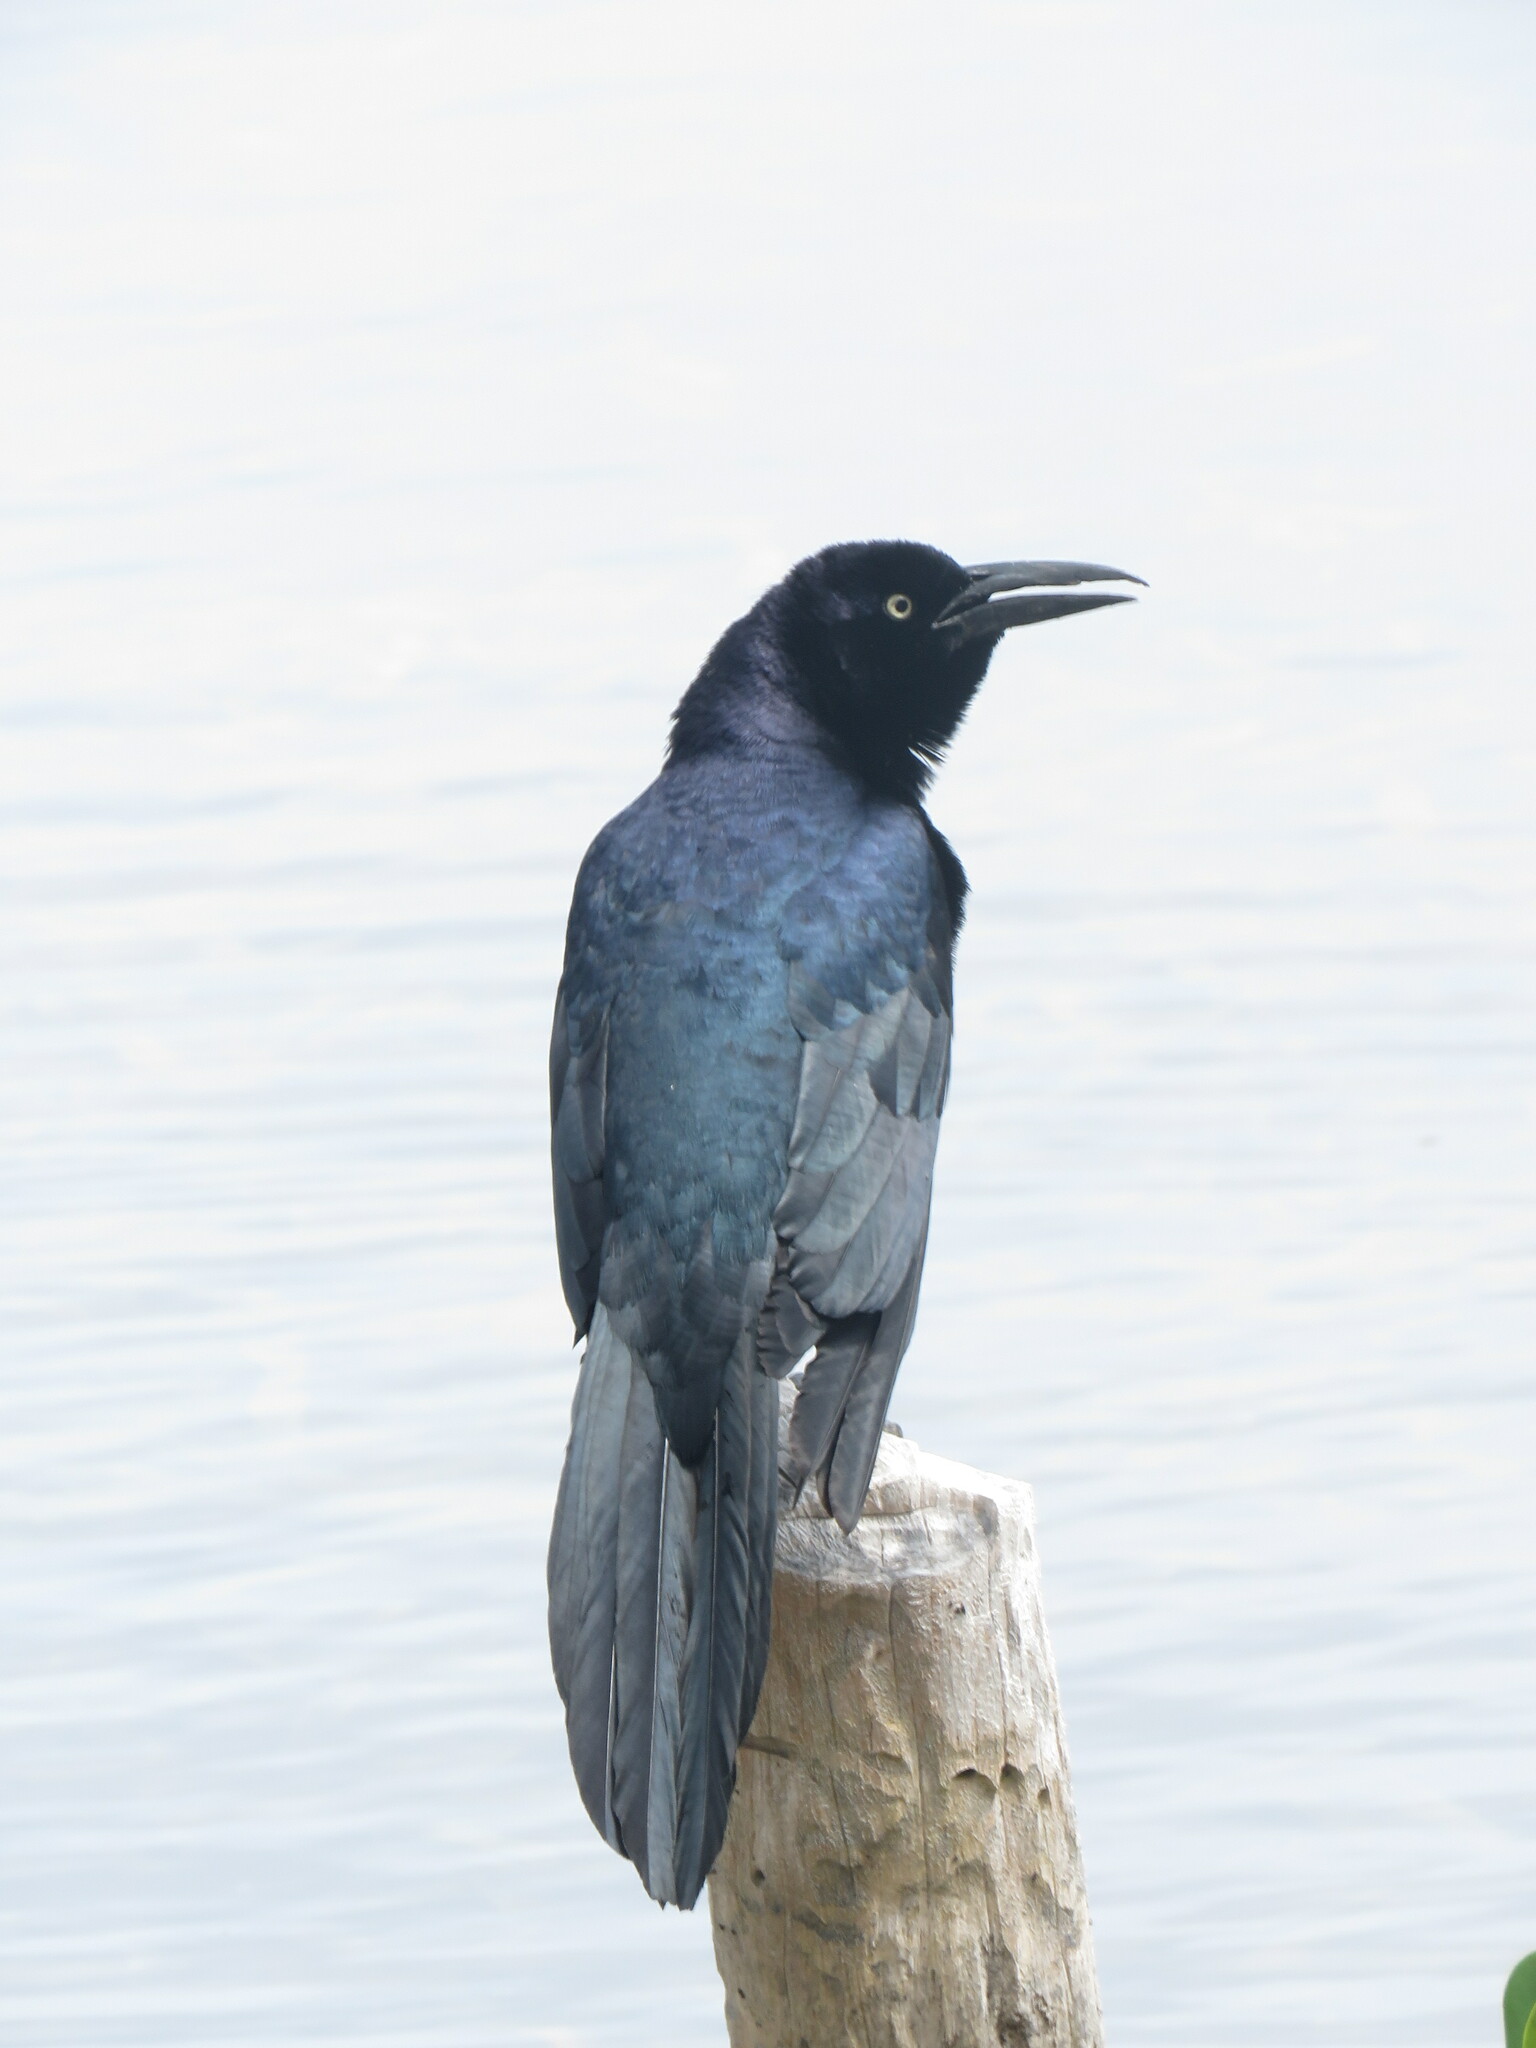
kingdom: Animalia
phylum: Chordata
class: Aves
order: Passeriformes
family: Icteridae
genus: Quiscalus
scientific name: Quiscalus mexicanus
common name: Great-tailed grackle
